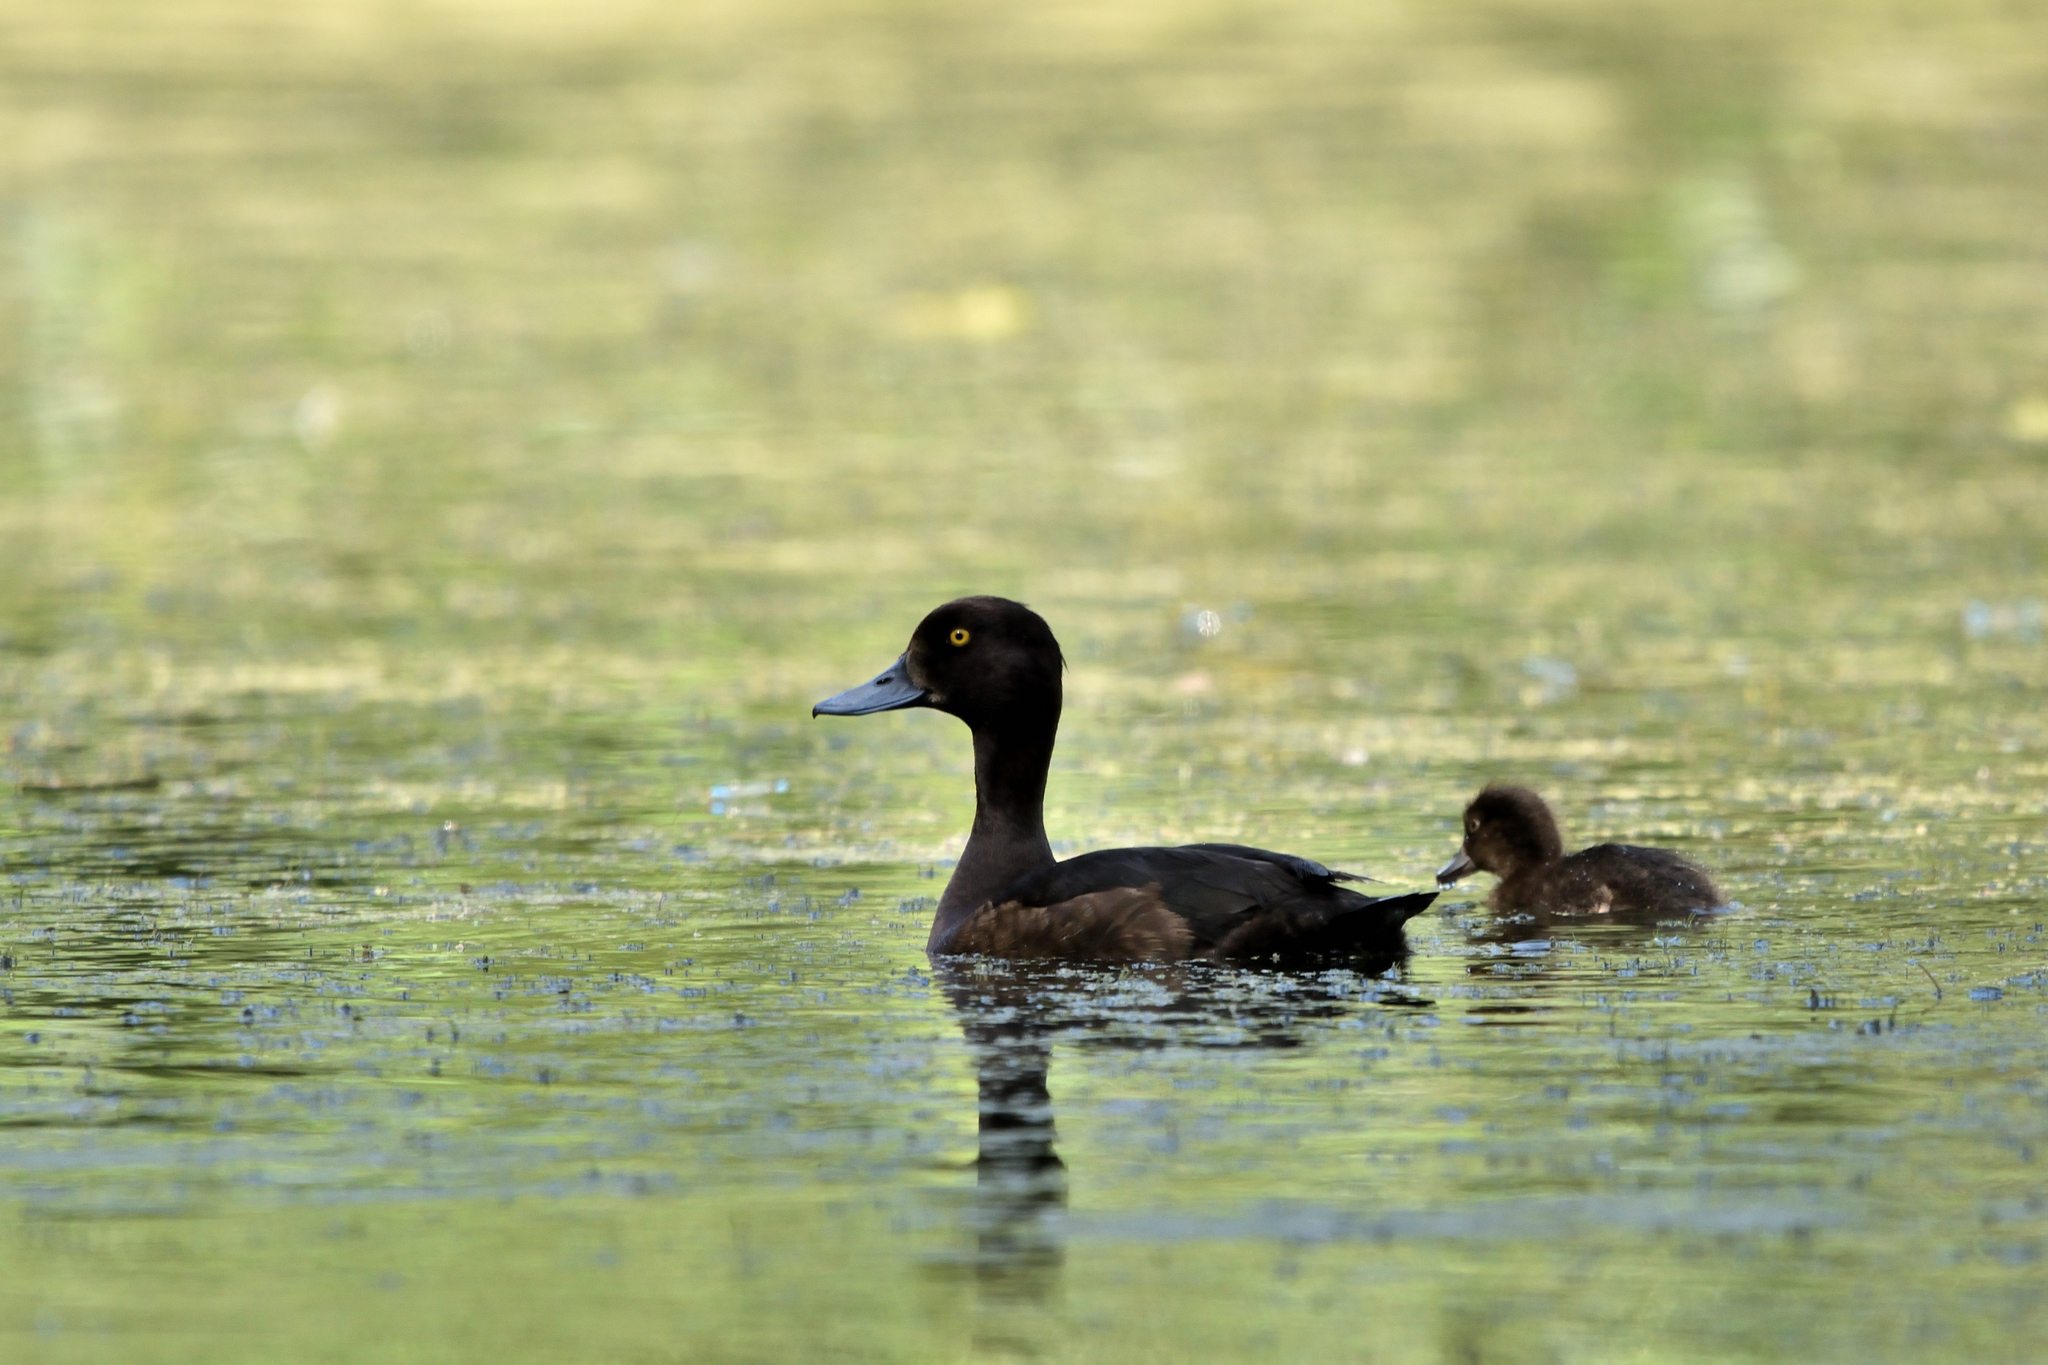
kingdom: Animalia
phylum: Chordata
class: Aves
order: Anseriformes
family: Anatidae
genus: Aythya
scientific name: Aythya fuligula
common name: Tufted duck
